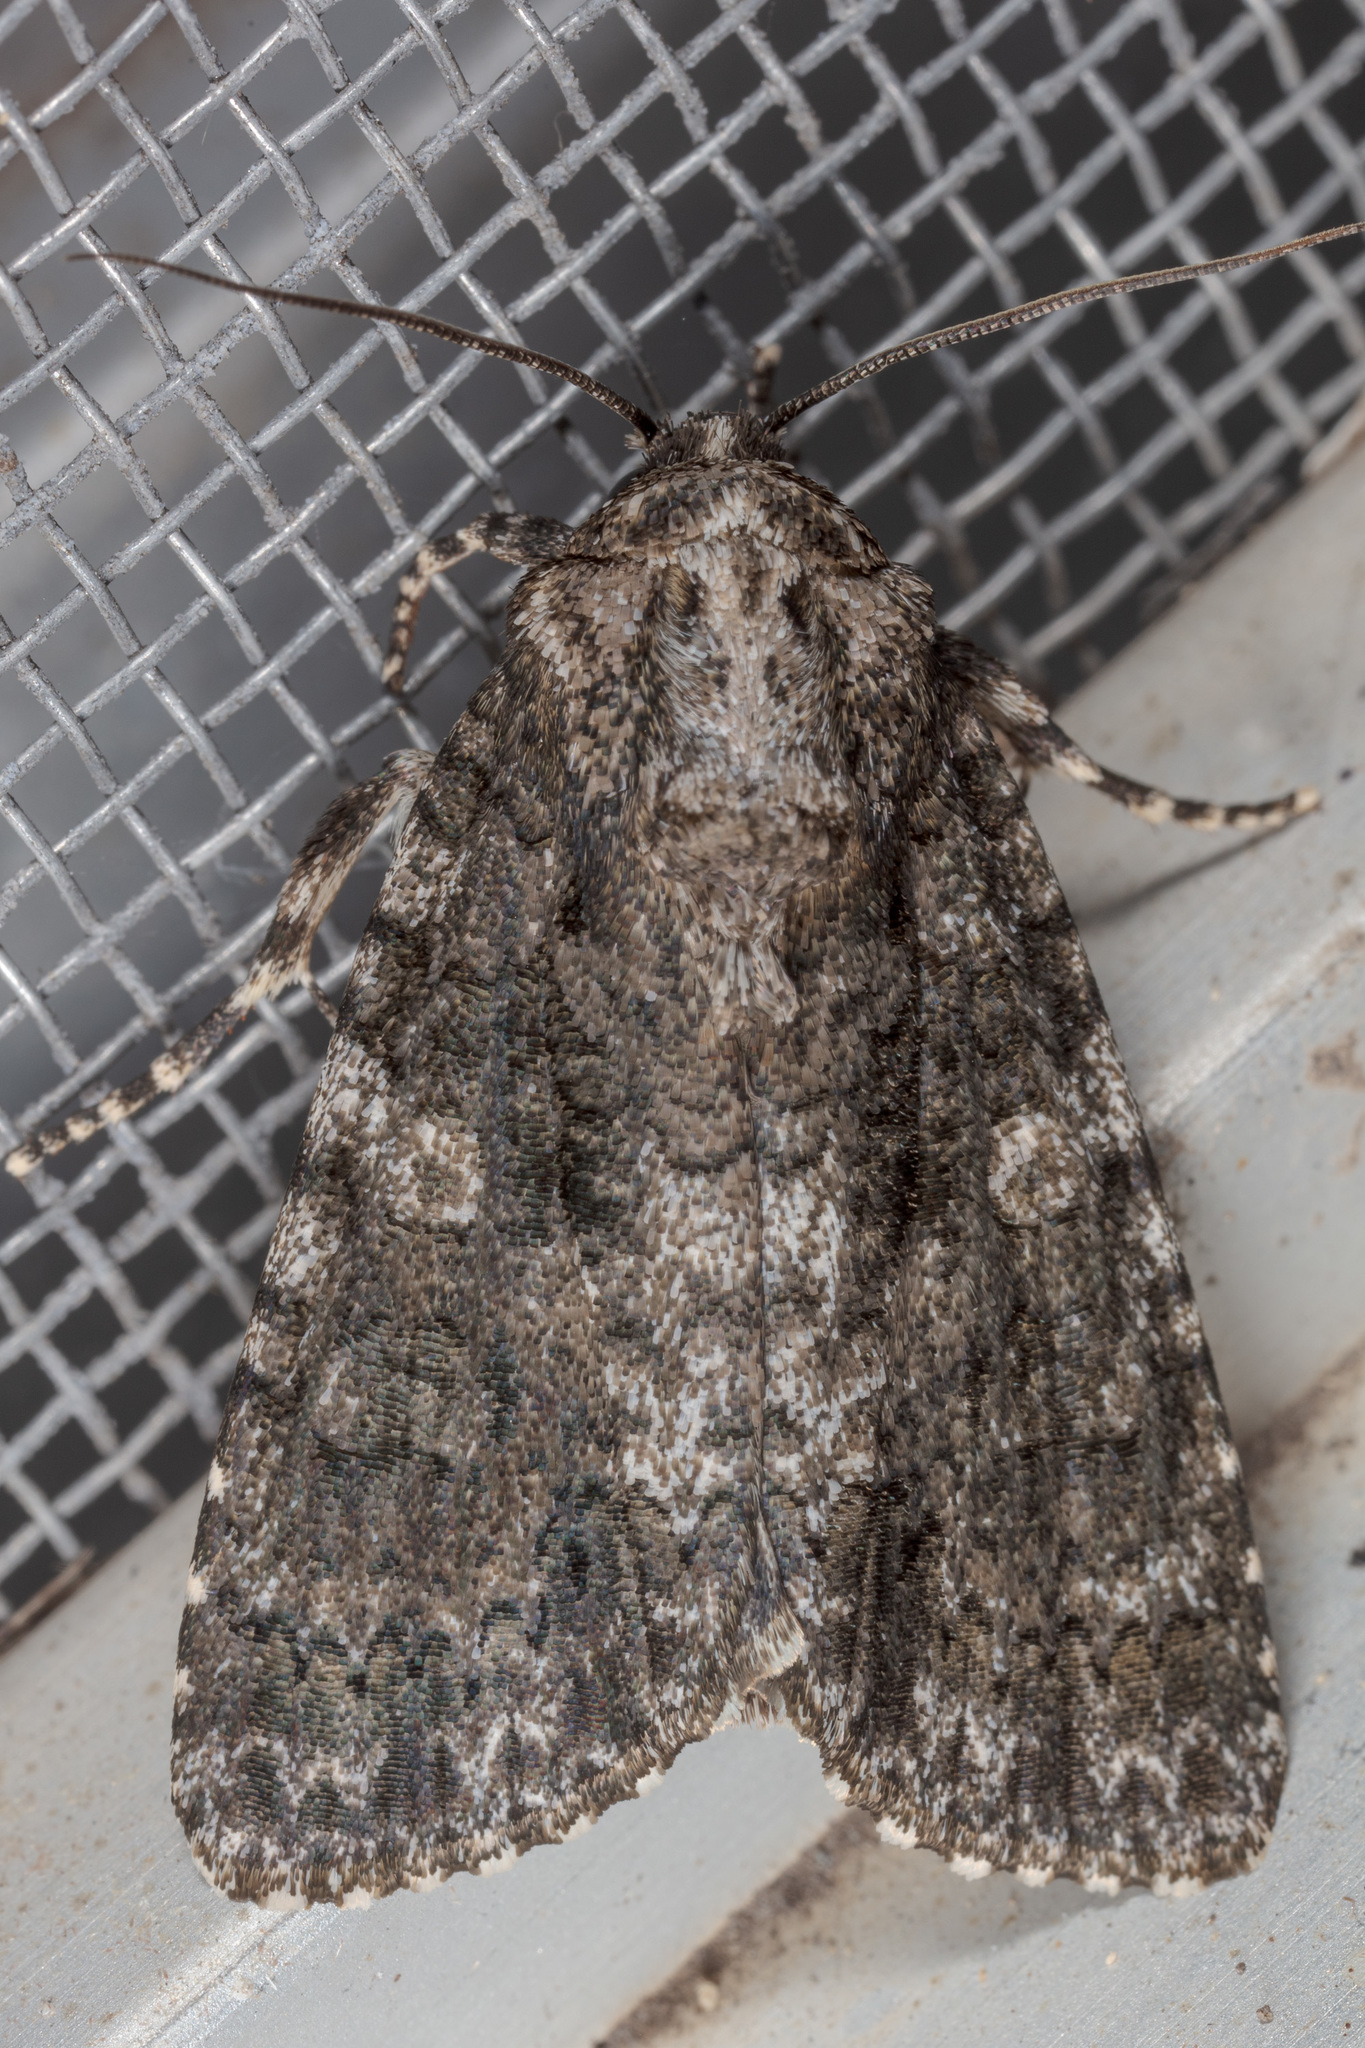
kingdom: Animalia
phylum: Arthropoda
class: Insecta
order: Lepidoptera
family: Noctuidae
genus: Acronicta
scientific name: Acronicta afflicta
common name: Afflicted dagger moth
